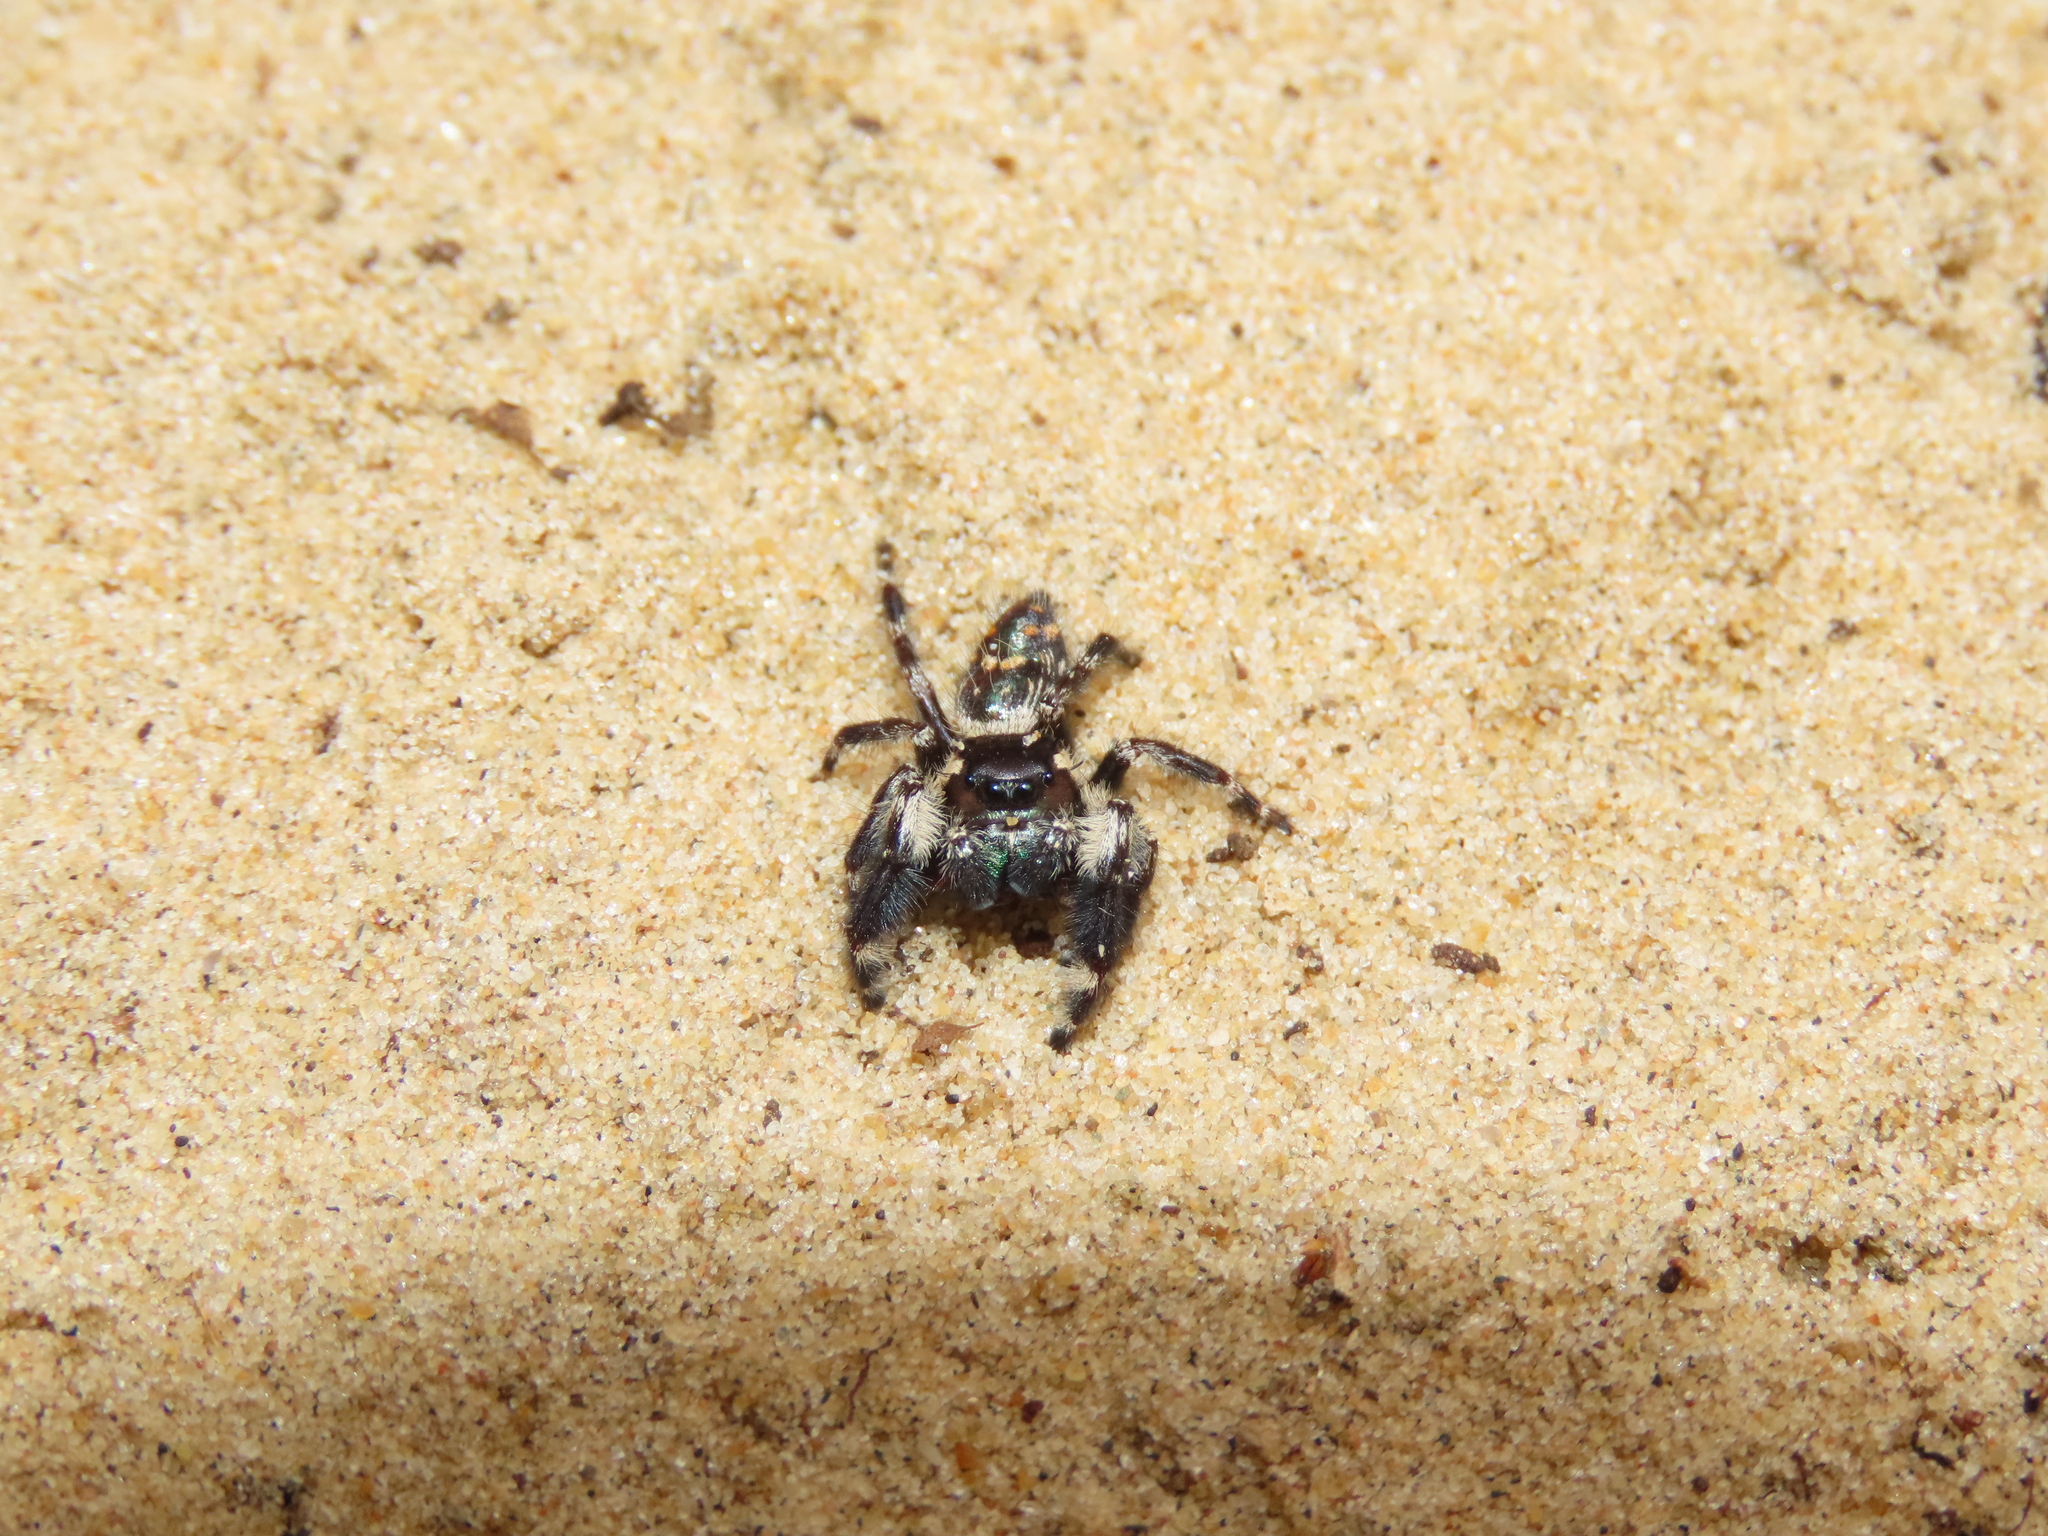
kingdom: Animalia
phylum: Arthropoda
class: Arachnida
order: Araneae
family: Salticidae
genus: Phidippus
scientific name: Phidippus otiosus
